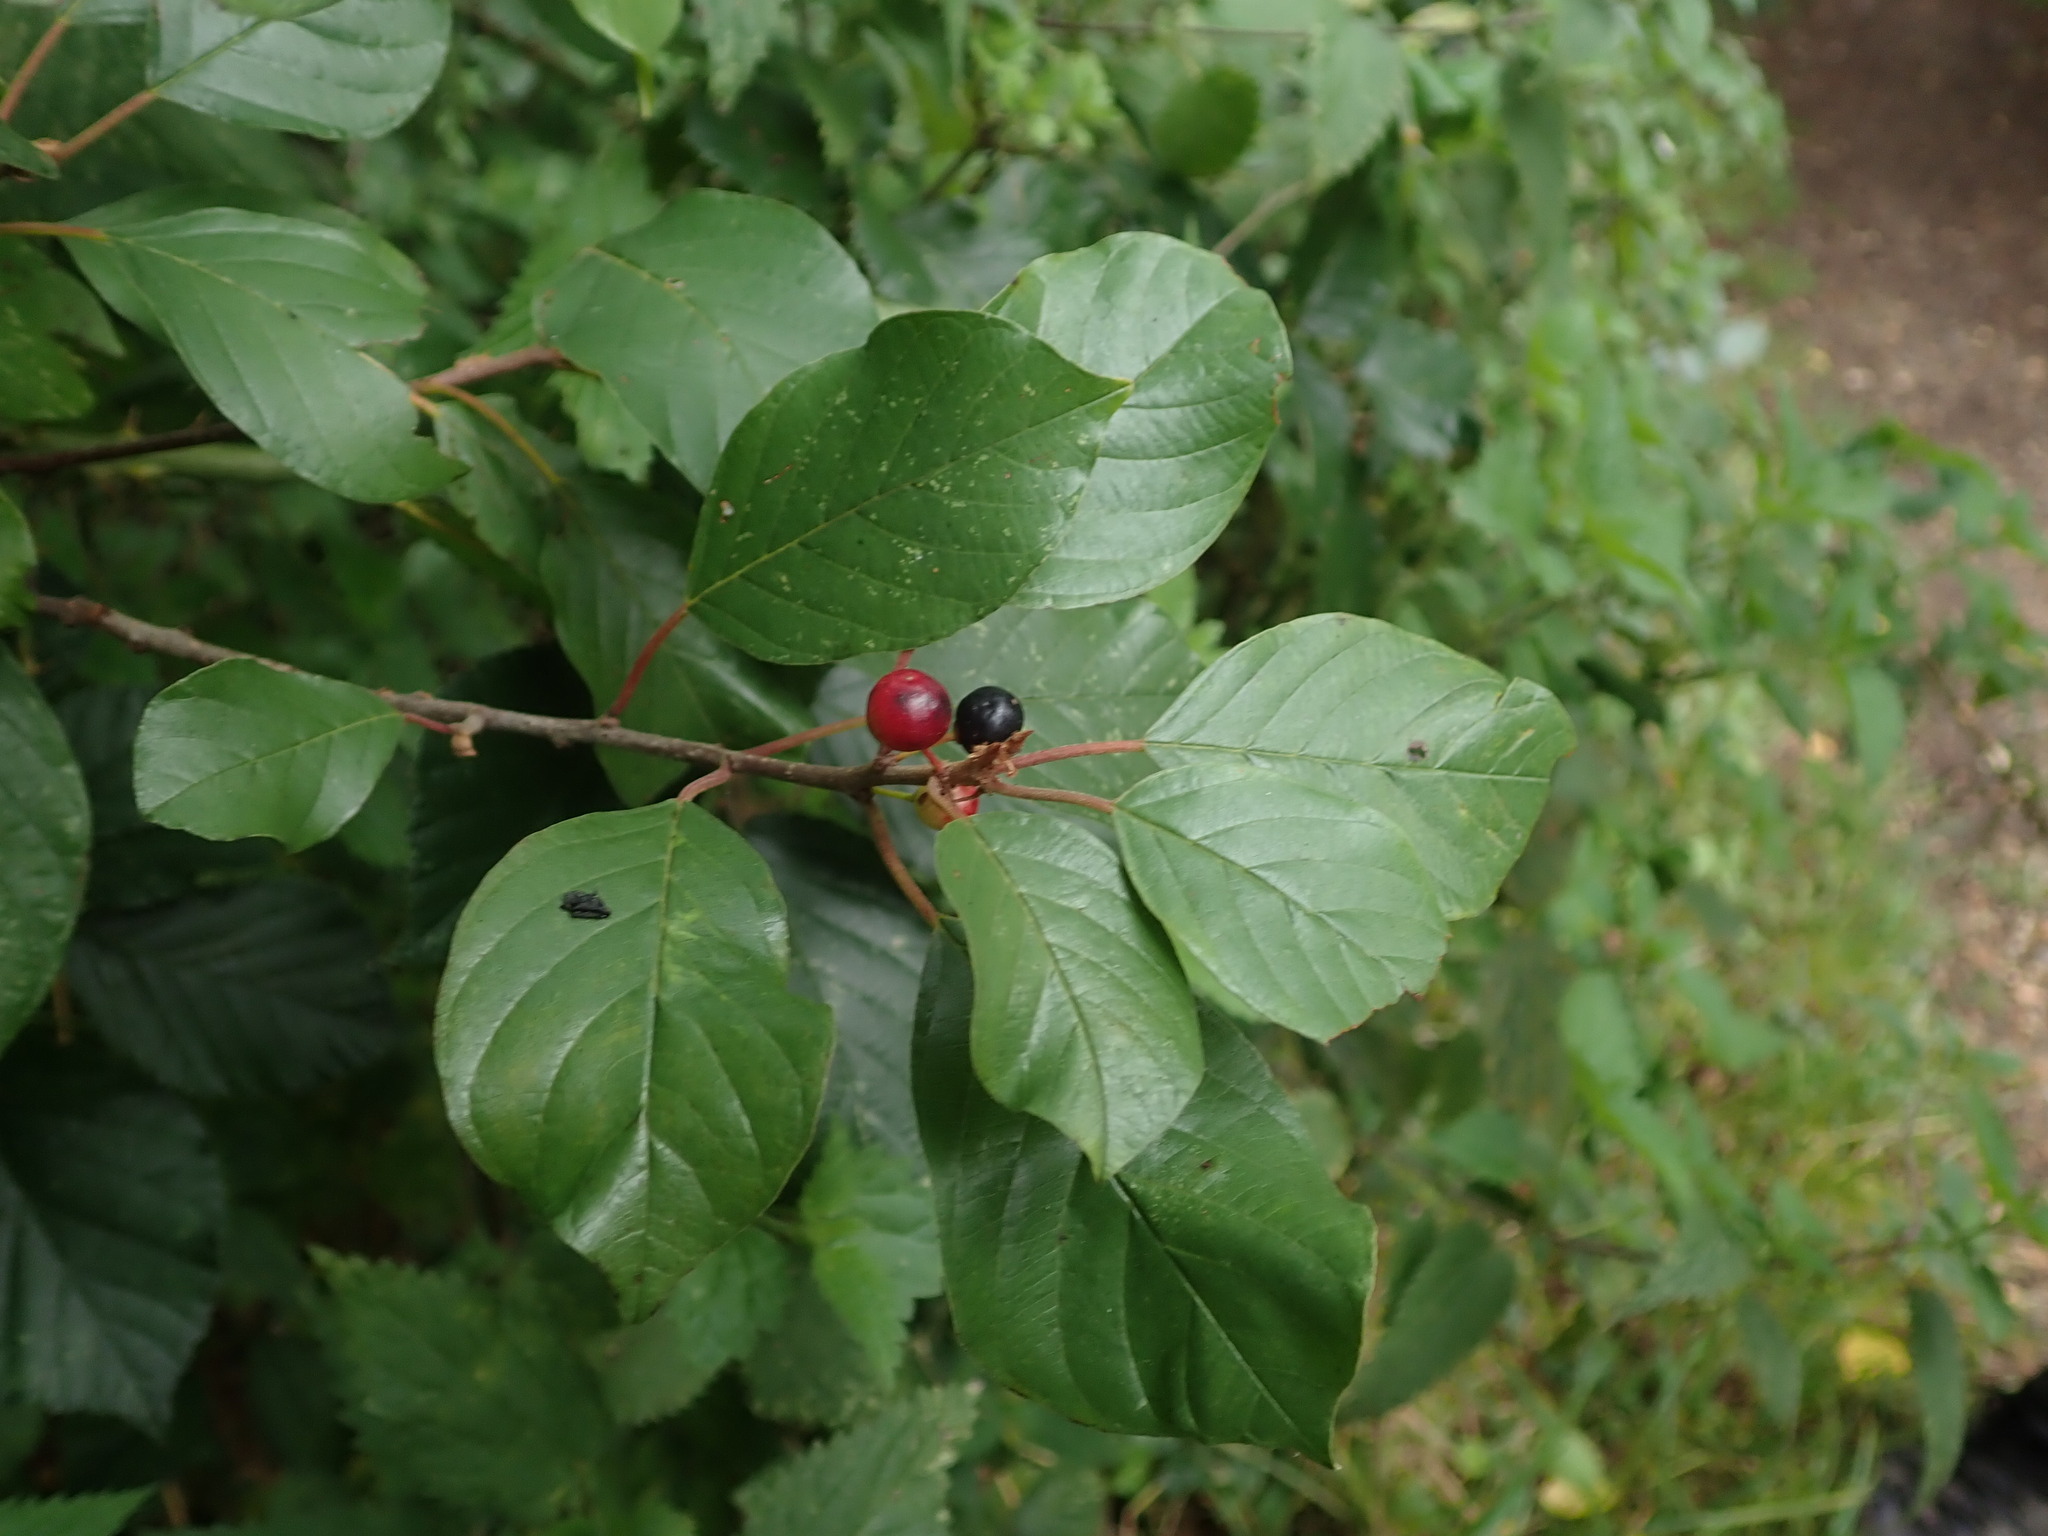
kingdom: Plantae
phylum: Tracheophyta
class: Magnoliopsida
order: Rosales
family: Rhamnaceae
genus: Frangula
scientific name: Frangula alnus
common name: Alder buckthorn
